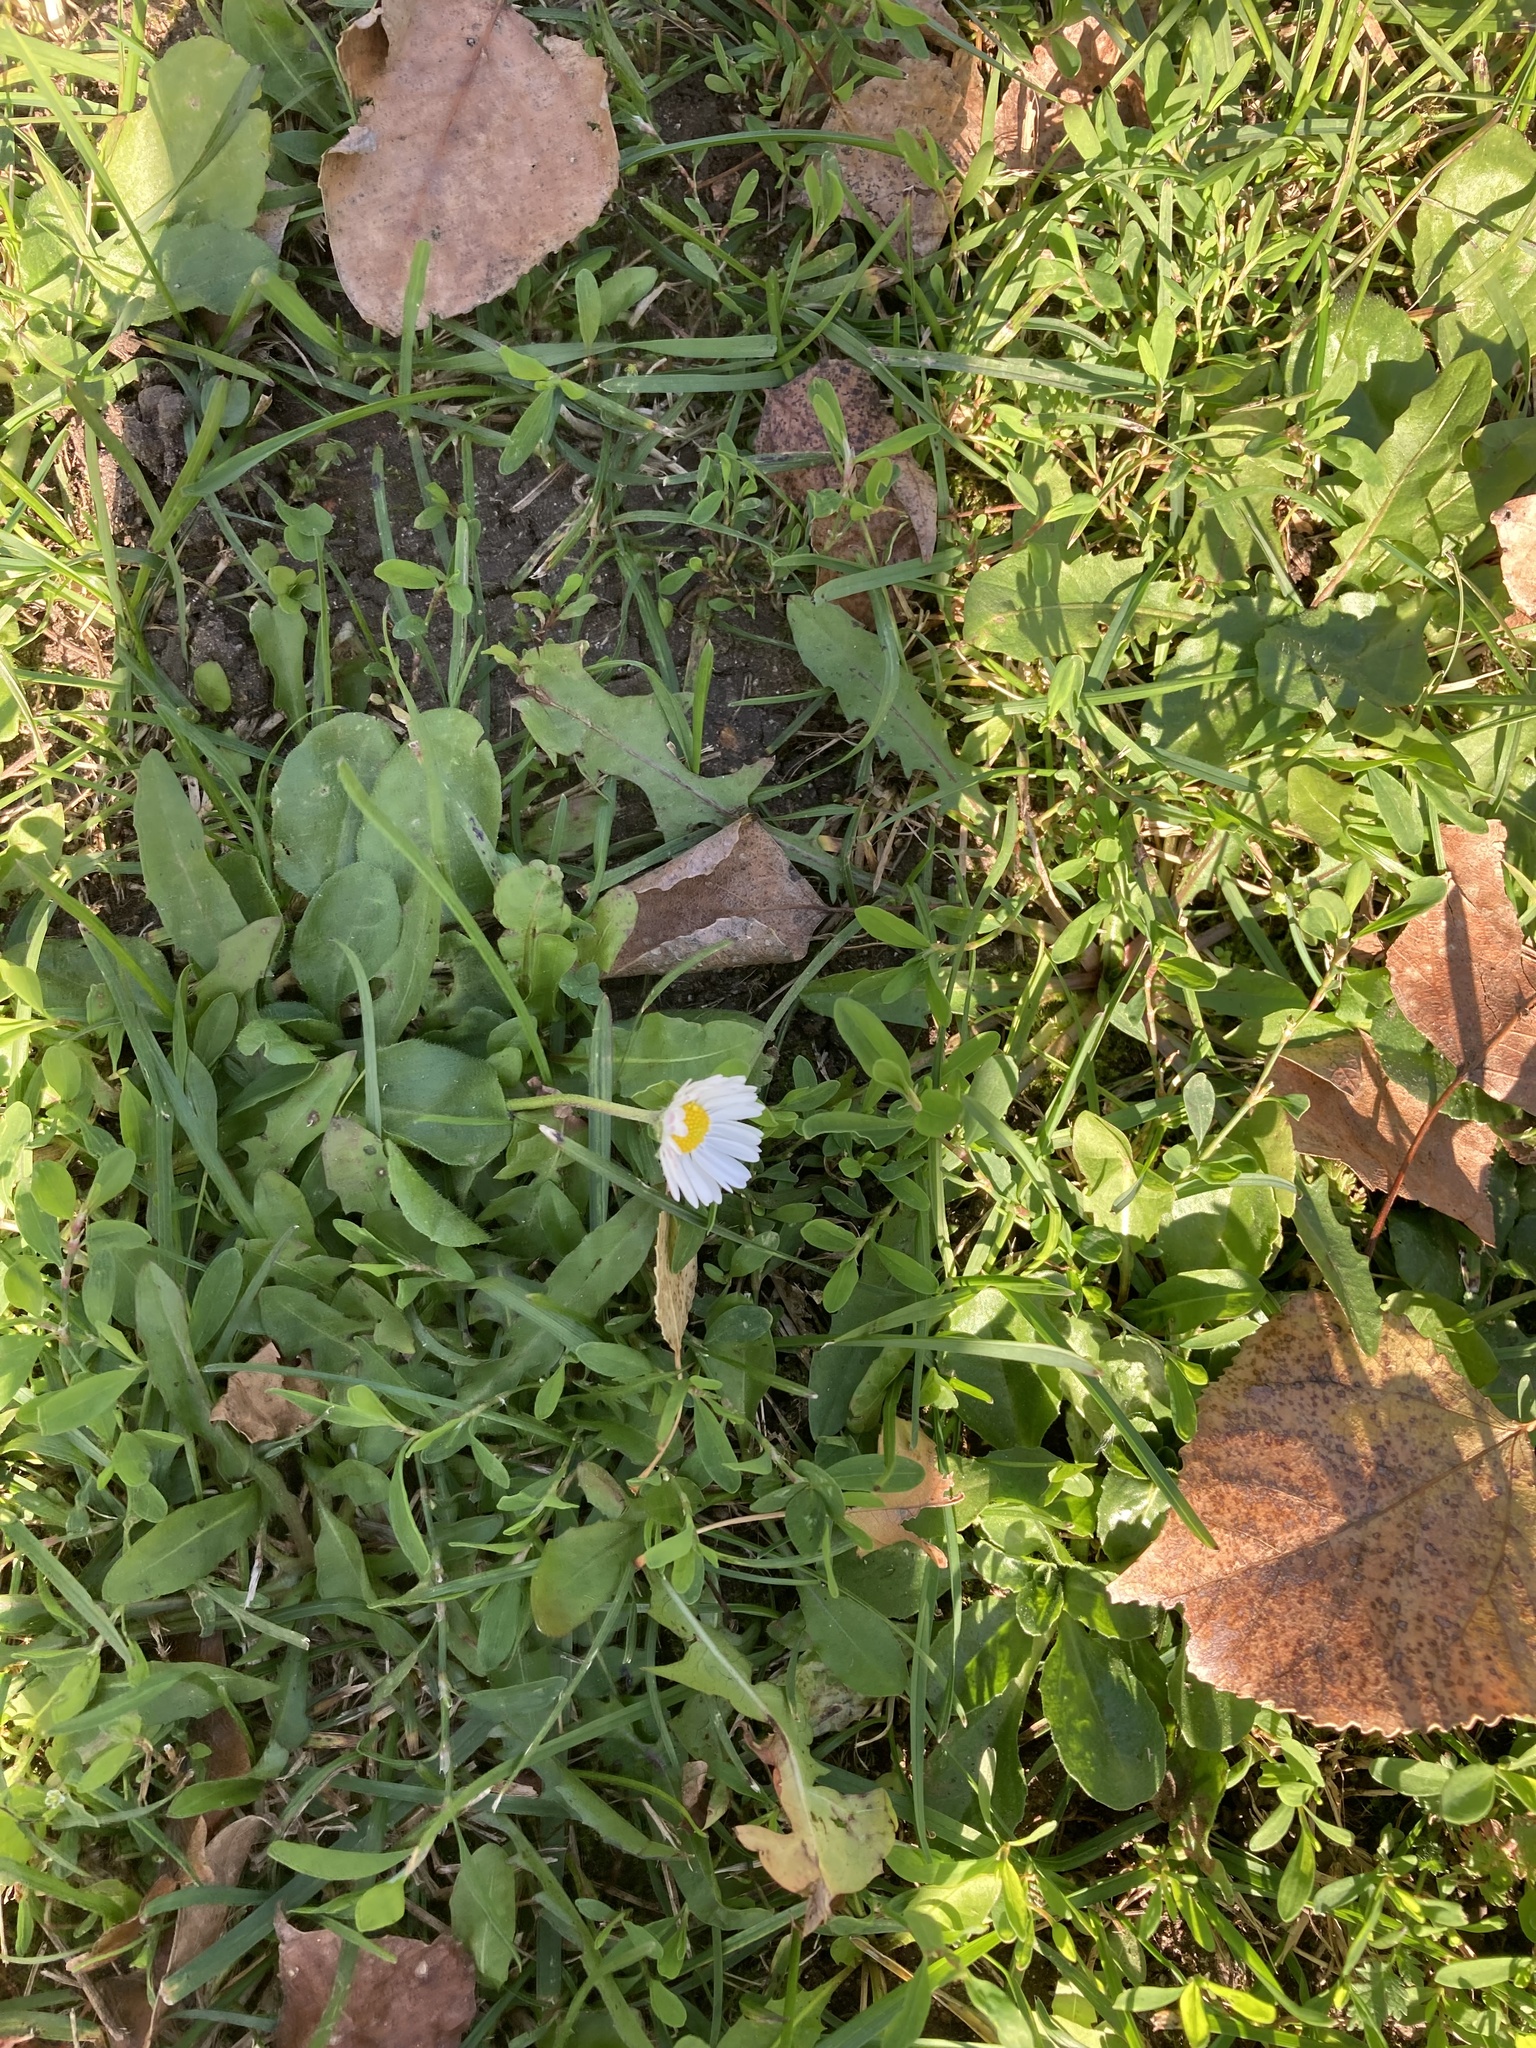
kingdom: Plantae
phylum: Tracheophyta
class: Magnoliopsida
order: Asterales
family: Asteraceae
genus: Bellis
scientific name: Bellis perennis
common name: Lawndaisy
